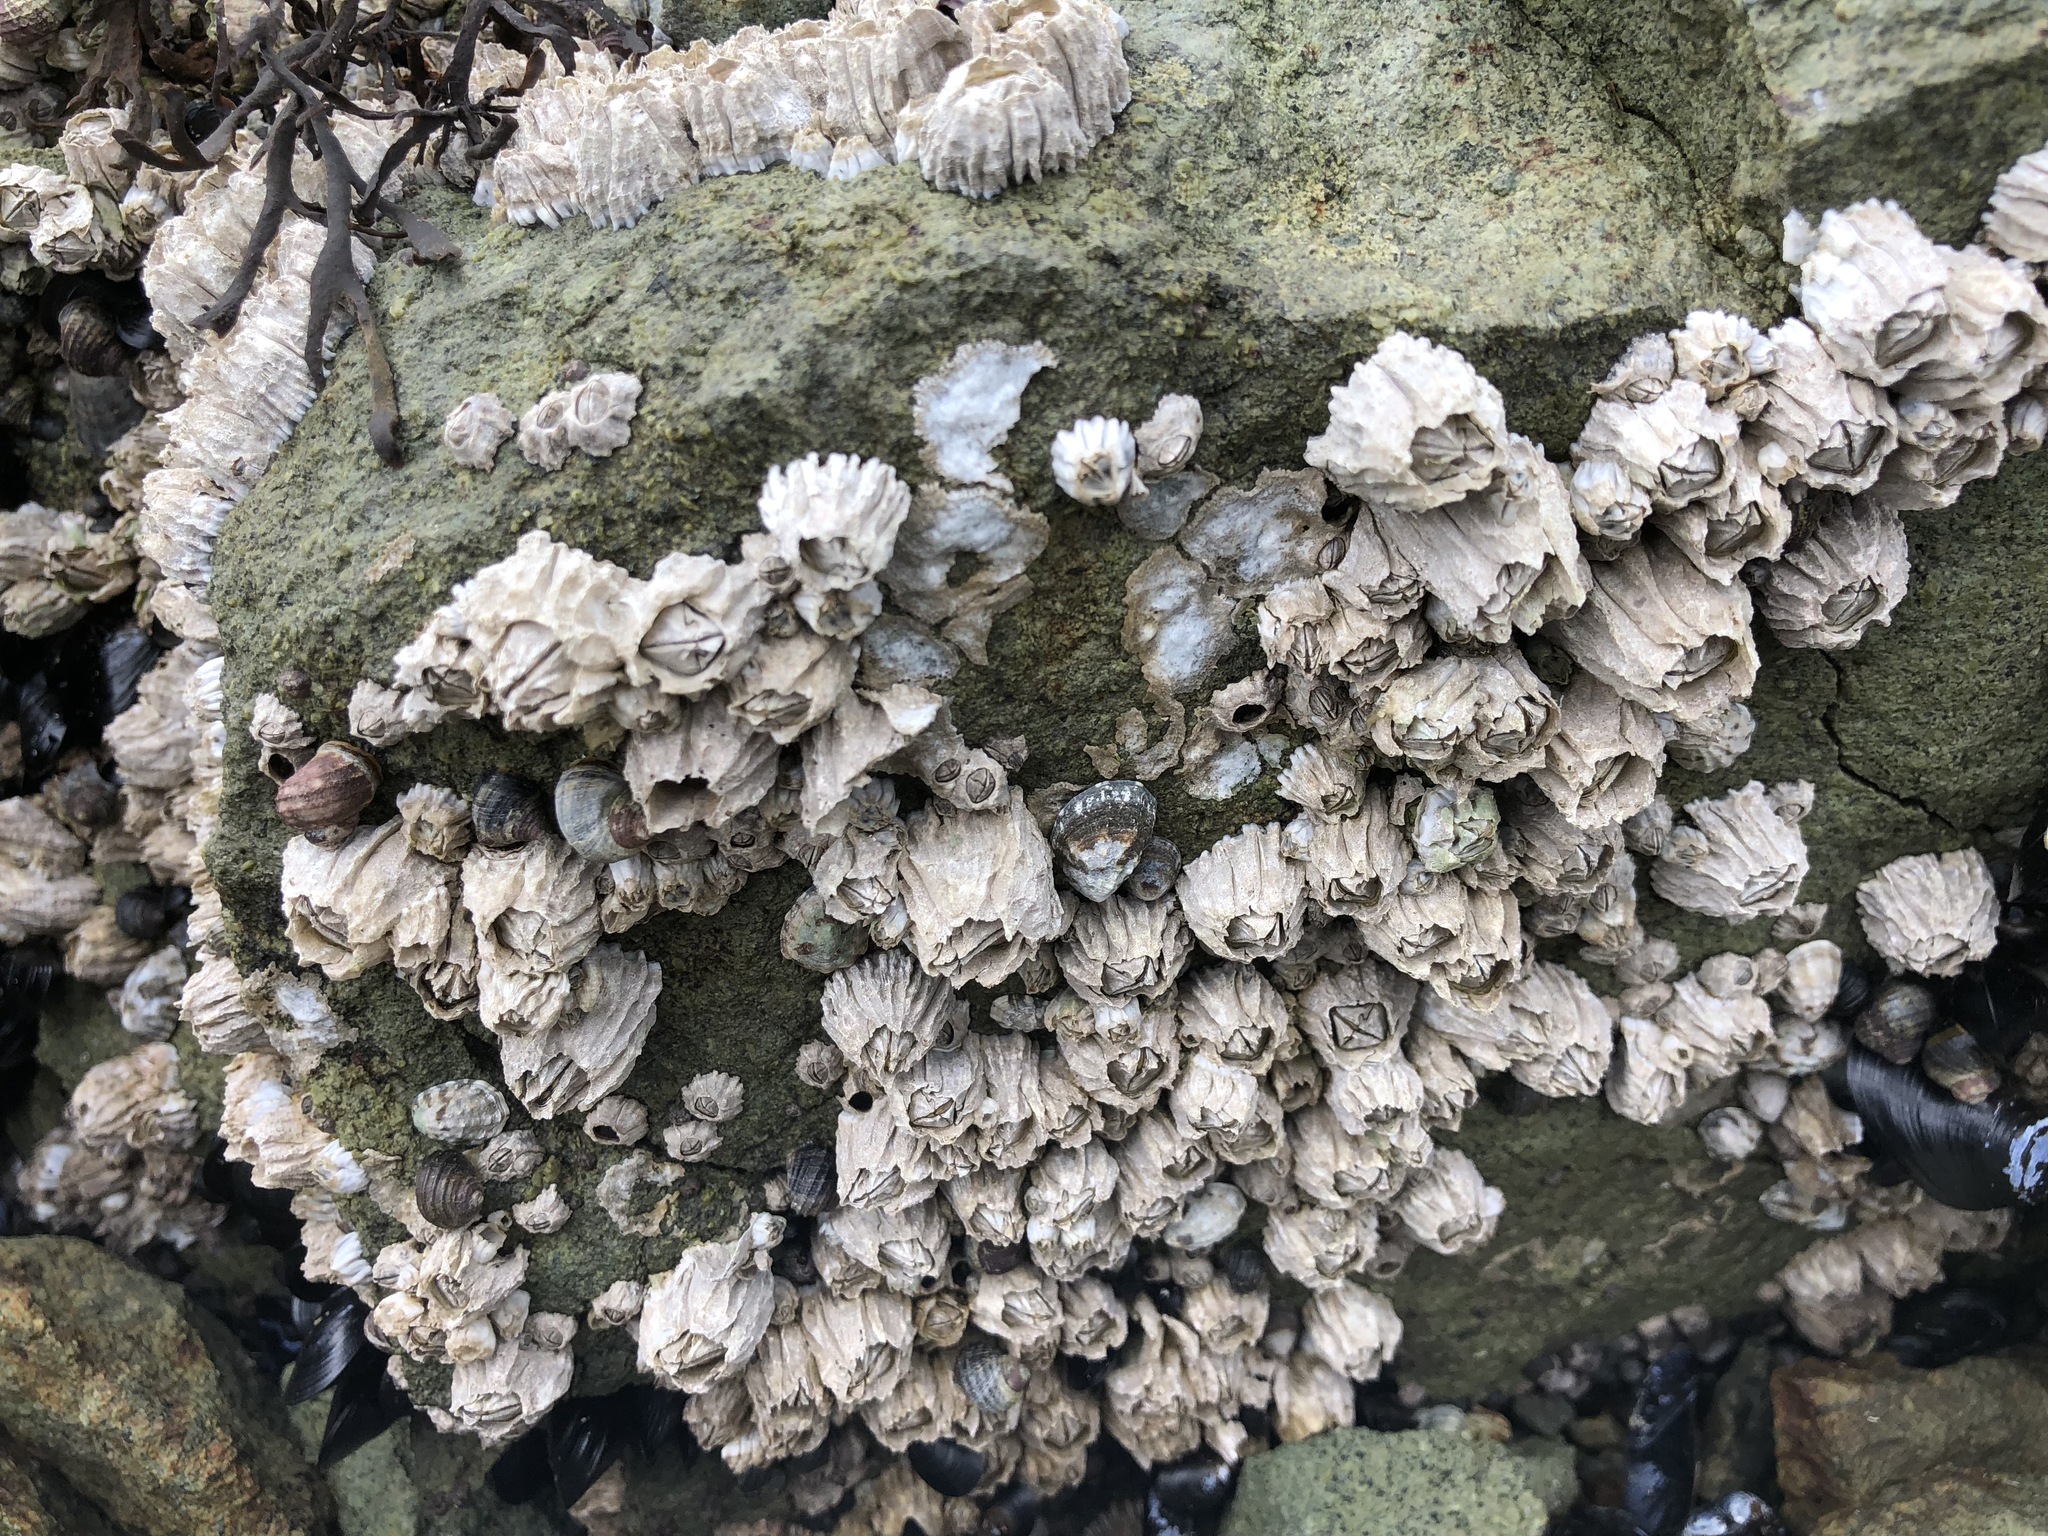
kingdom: Animalia
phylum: Arthropoda
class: Maxillopoda
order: Sessilia
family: Balanidae
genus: Balanus
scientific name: Balanus glandula
